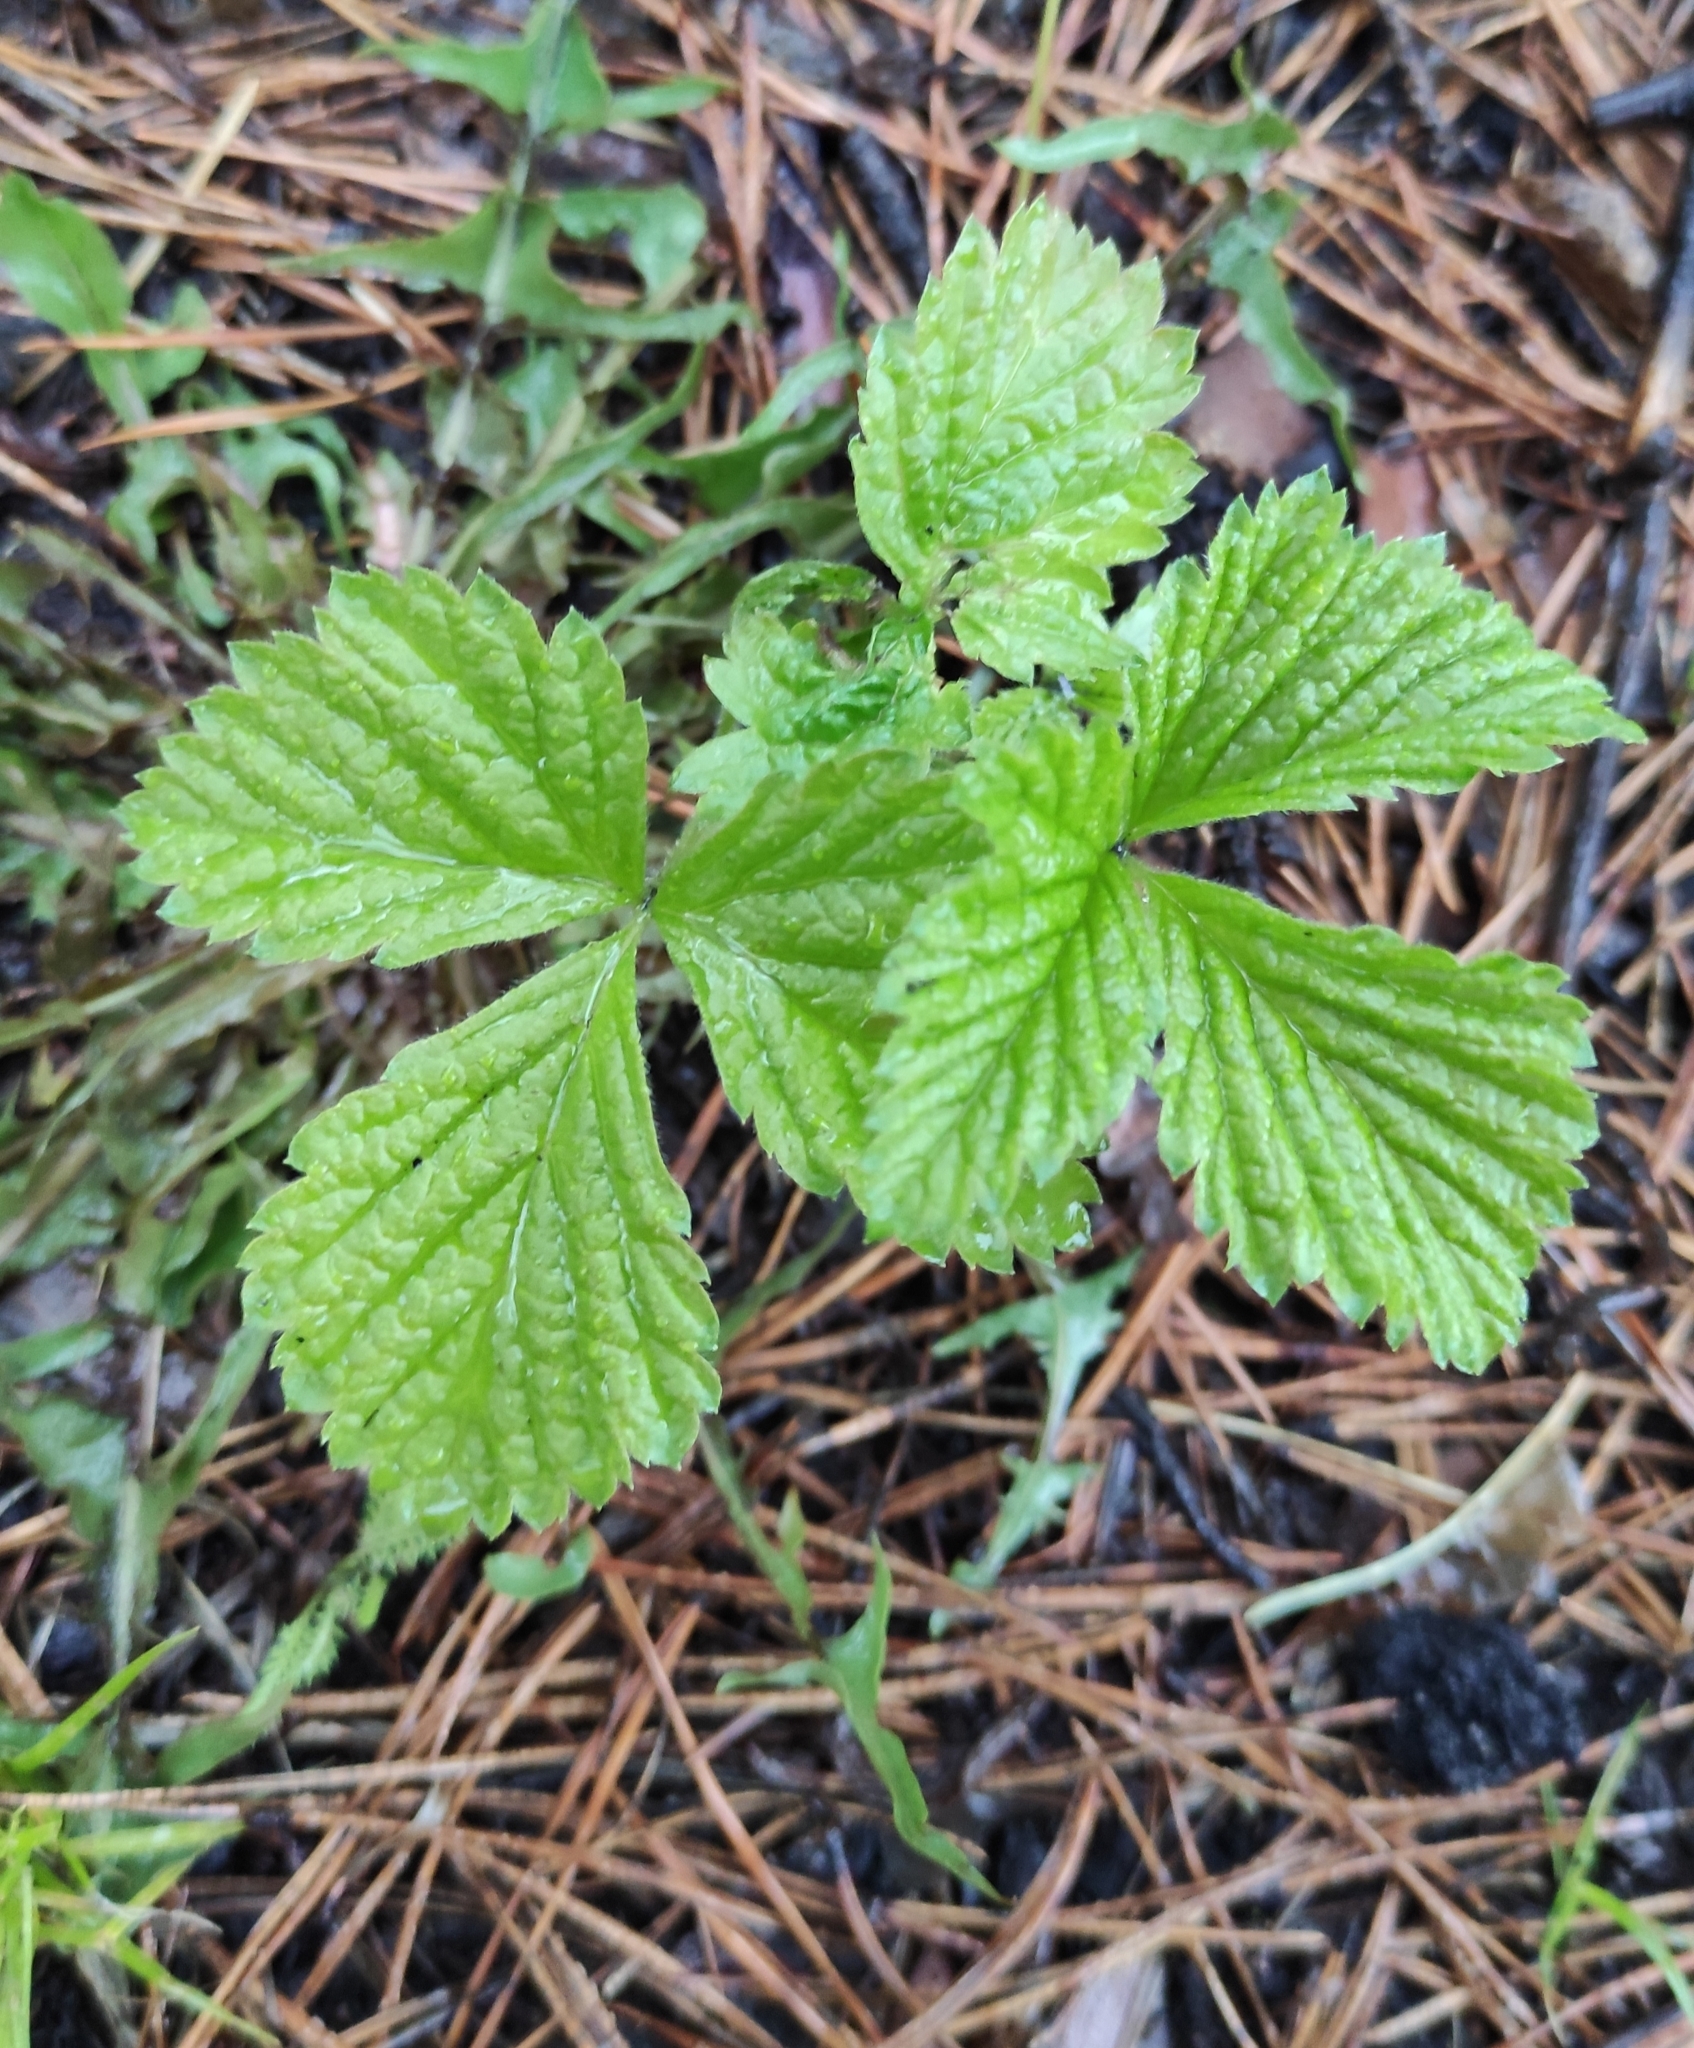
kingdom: Plantae
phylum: Tracheophyta
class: Magnoliopsida
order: Rosales
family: Rosaceae
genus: Rubus
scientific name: Rubus saxatilis
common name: Stone bramble
